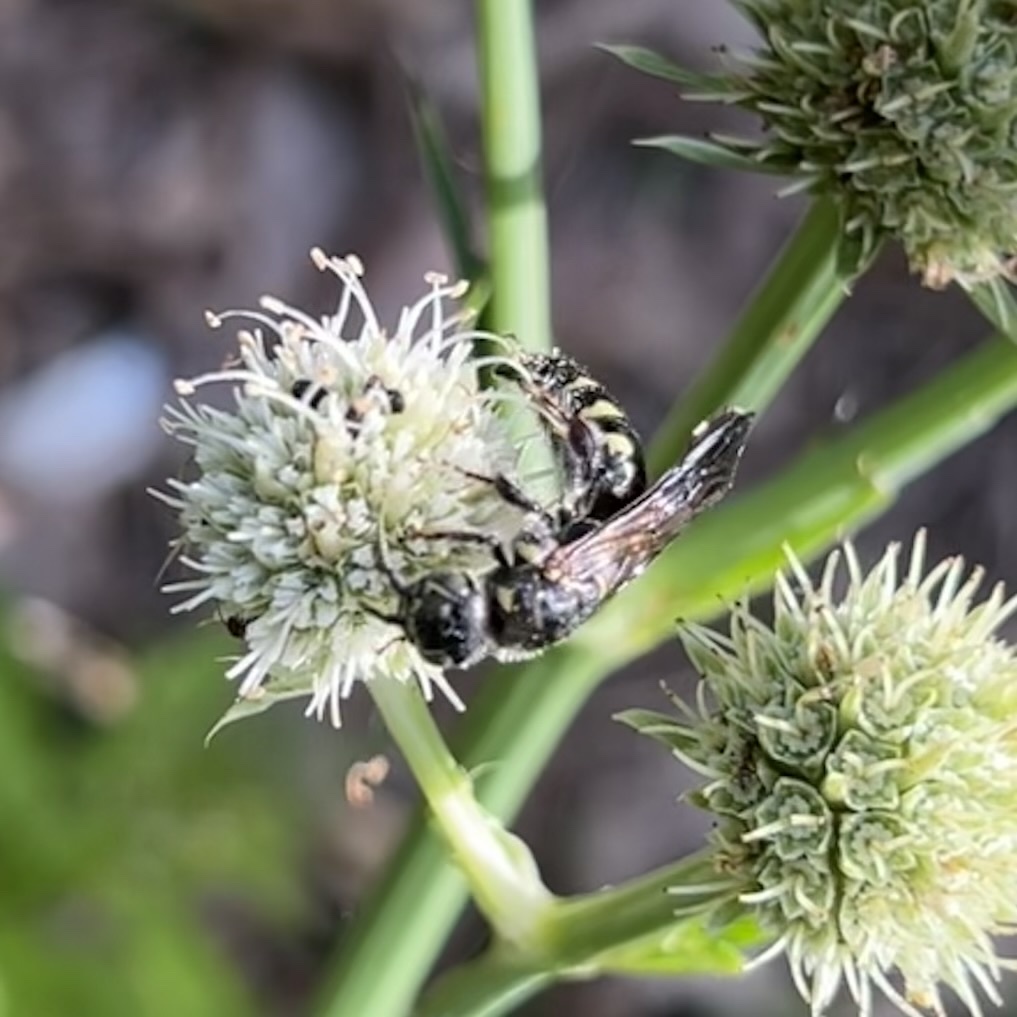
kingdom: Animalia
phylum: Arthropoda
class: Insecta
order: Hymenoptera
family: Tiphiidae
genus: Myzinum
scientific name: Myzinum obscurum
